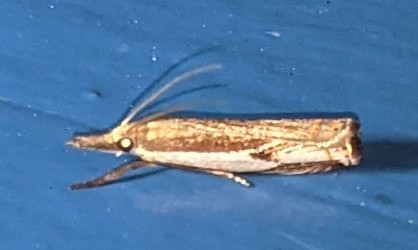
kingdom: Animalia
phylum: Arthropoda
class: Insecta
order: Lepidoptera
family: Crambidae
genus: Crambus
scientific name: Crambus agitatellus
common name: Double-banded grass-veneer
